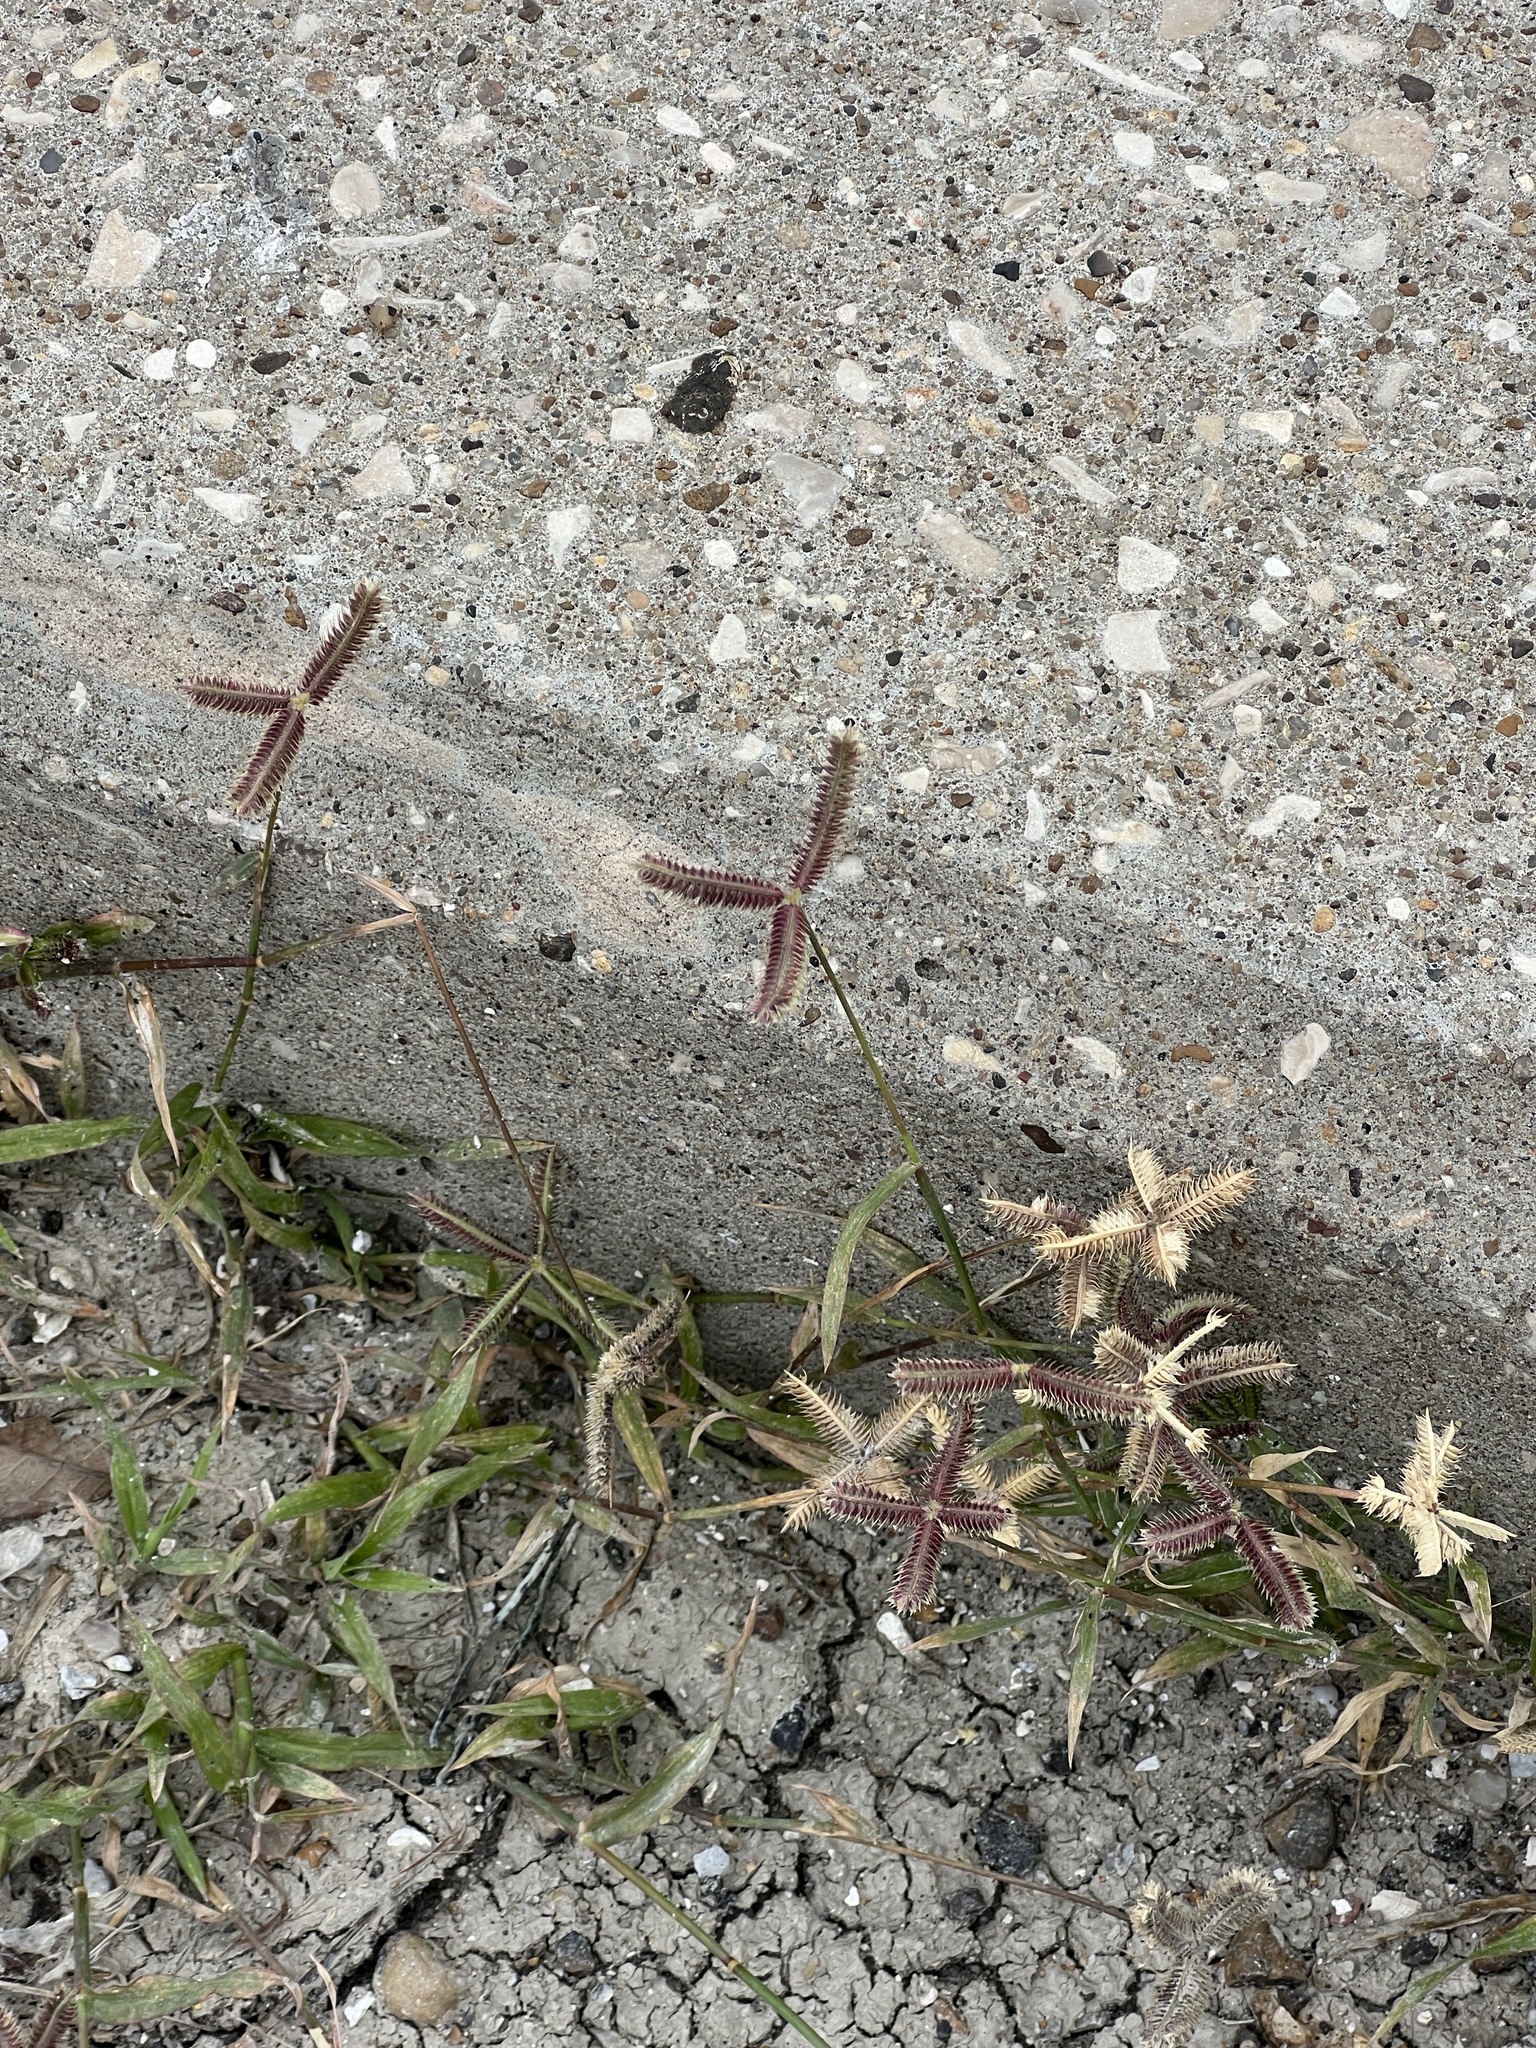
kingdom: Plantae
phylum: Tracheophyta
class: Liliopsida
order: Poales
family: Poaceae
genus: Dactyloctenium
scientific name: Dactyloctenium aegyptium
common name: Egyptian grass
